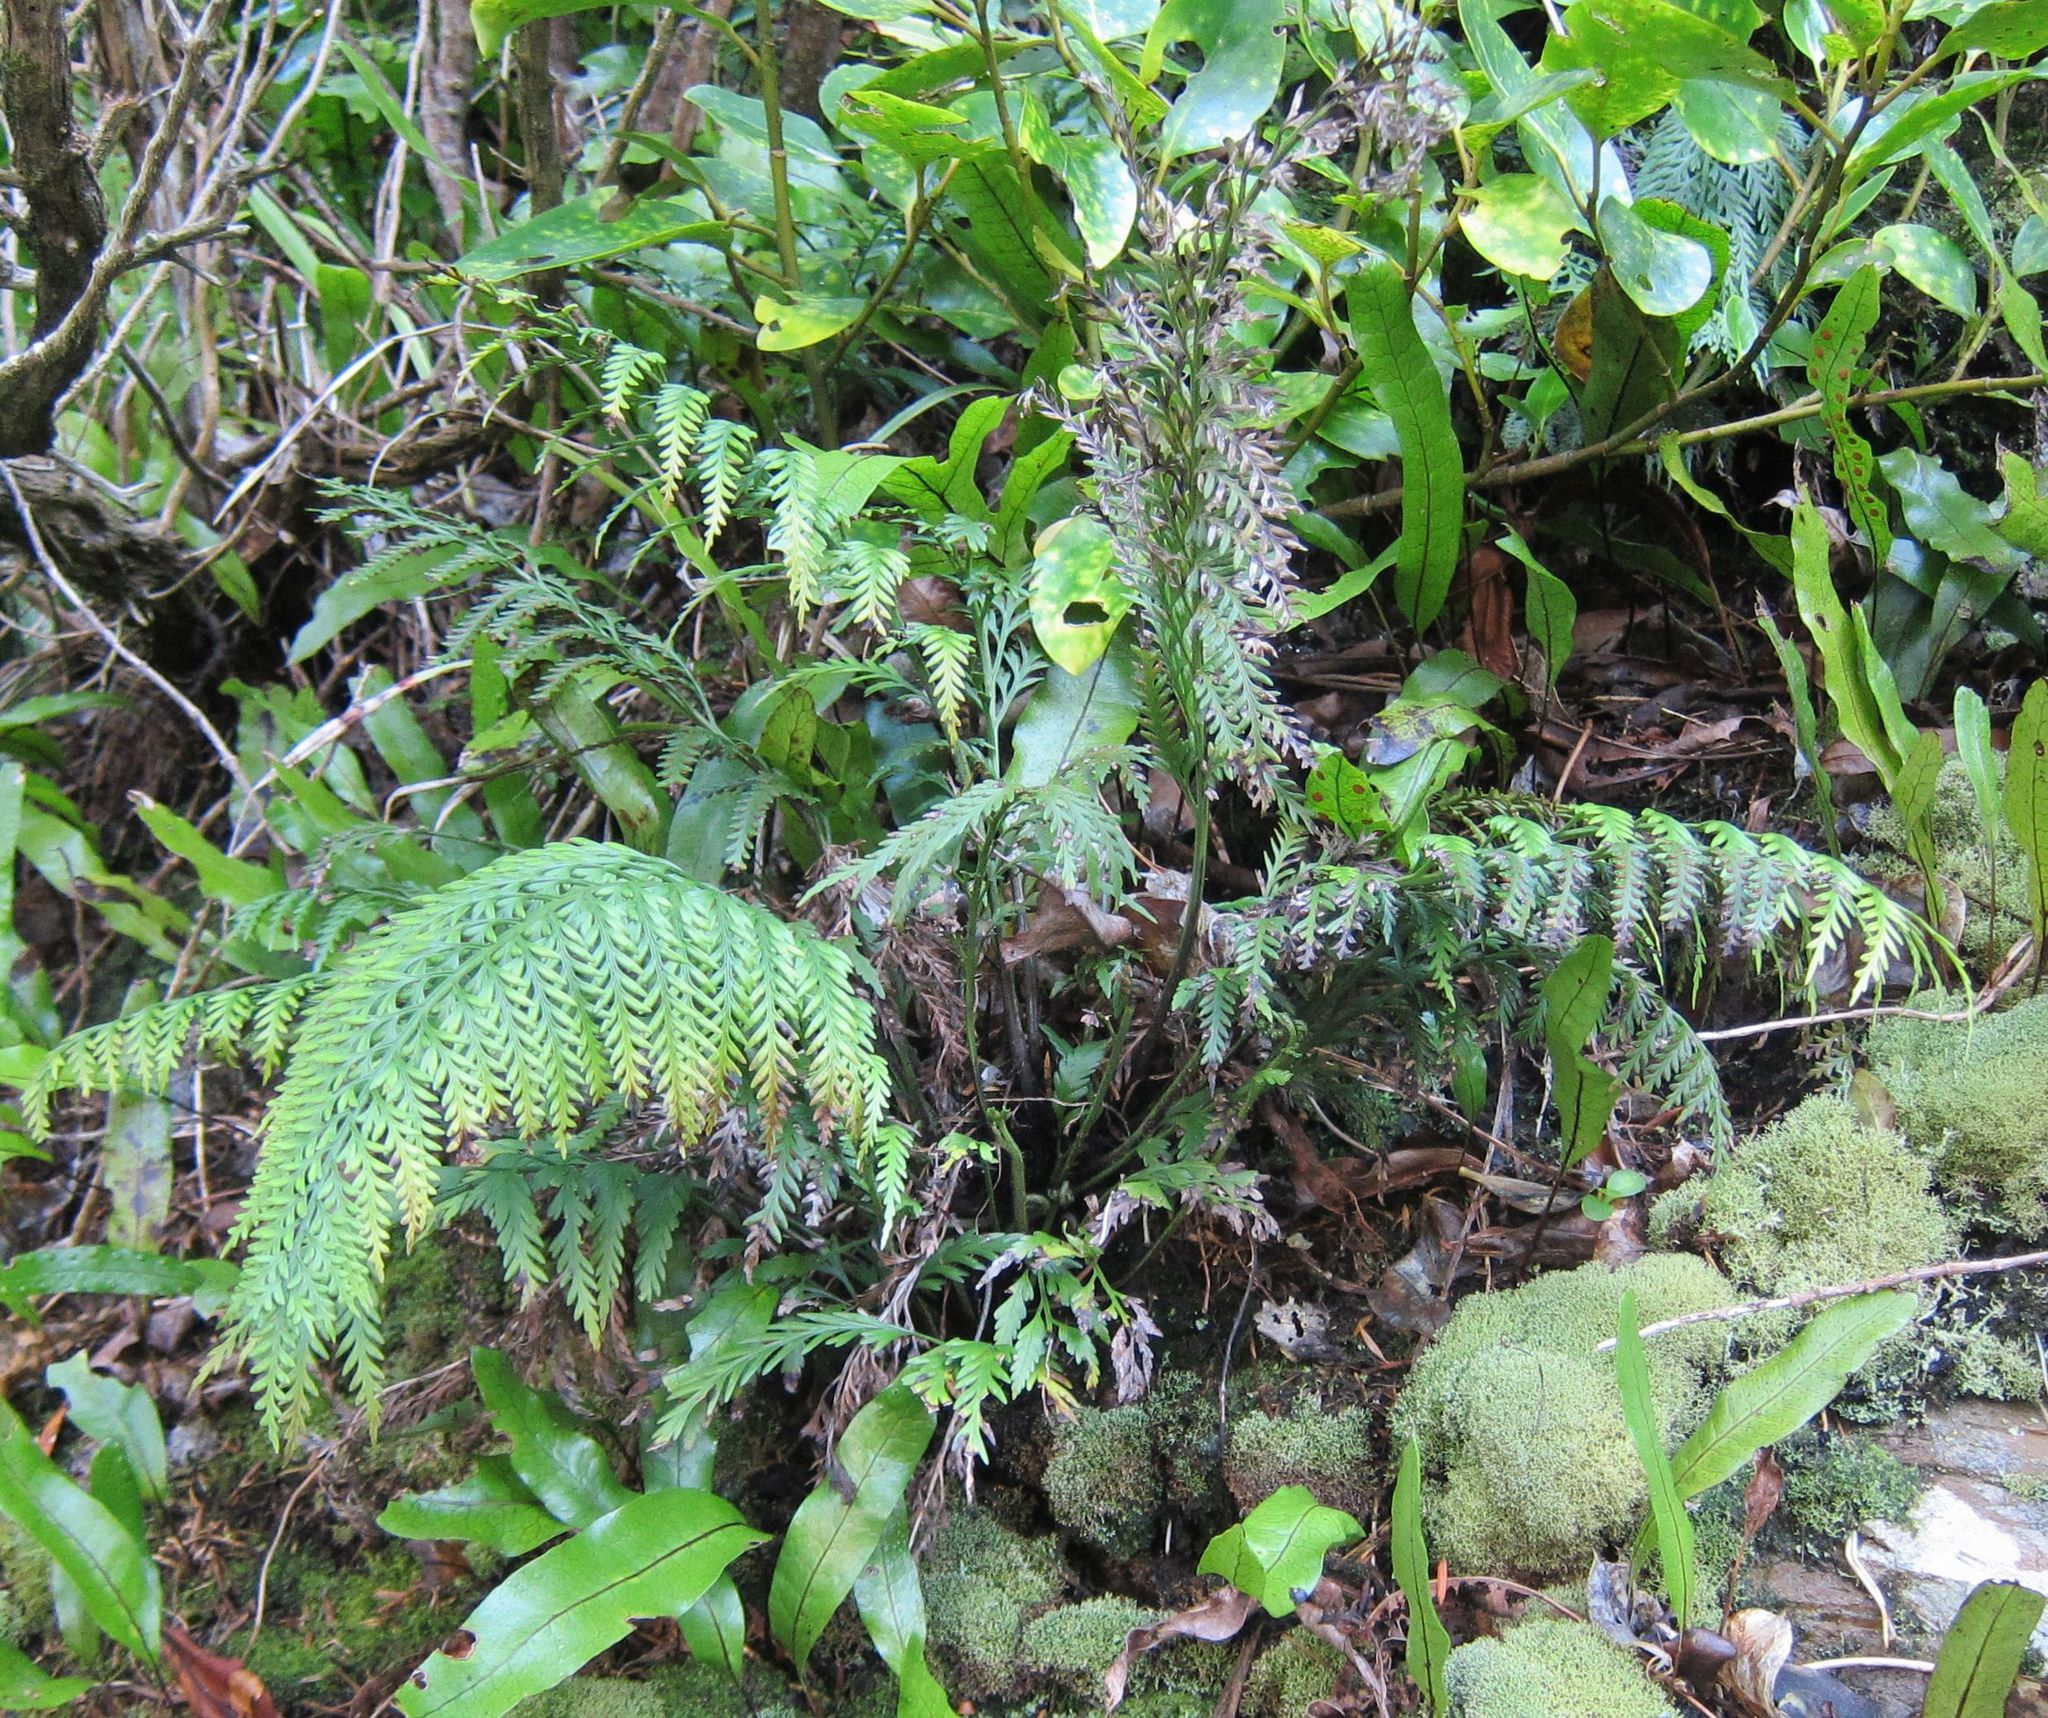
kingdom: Plantae
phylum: Tracheophyta
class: Polypodiopsida
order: Polypodiales
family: Aspleniaceae
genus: Asplenium
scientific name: Asplenium appendiculatum
